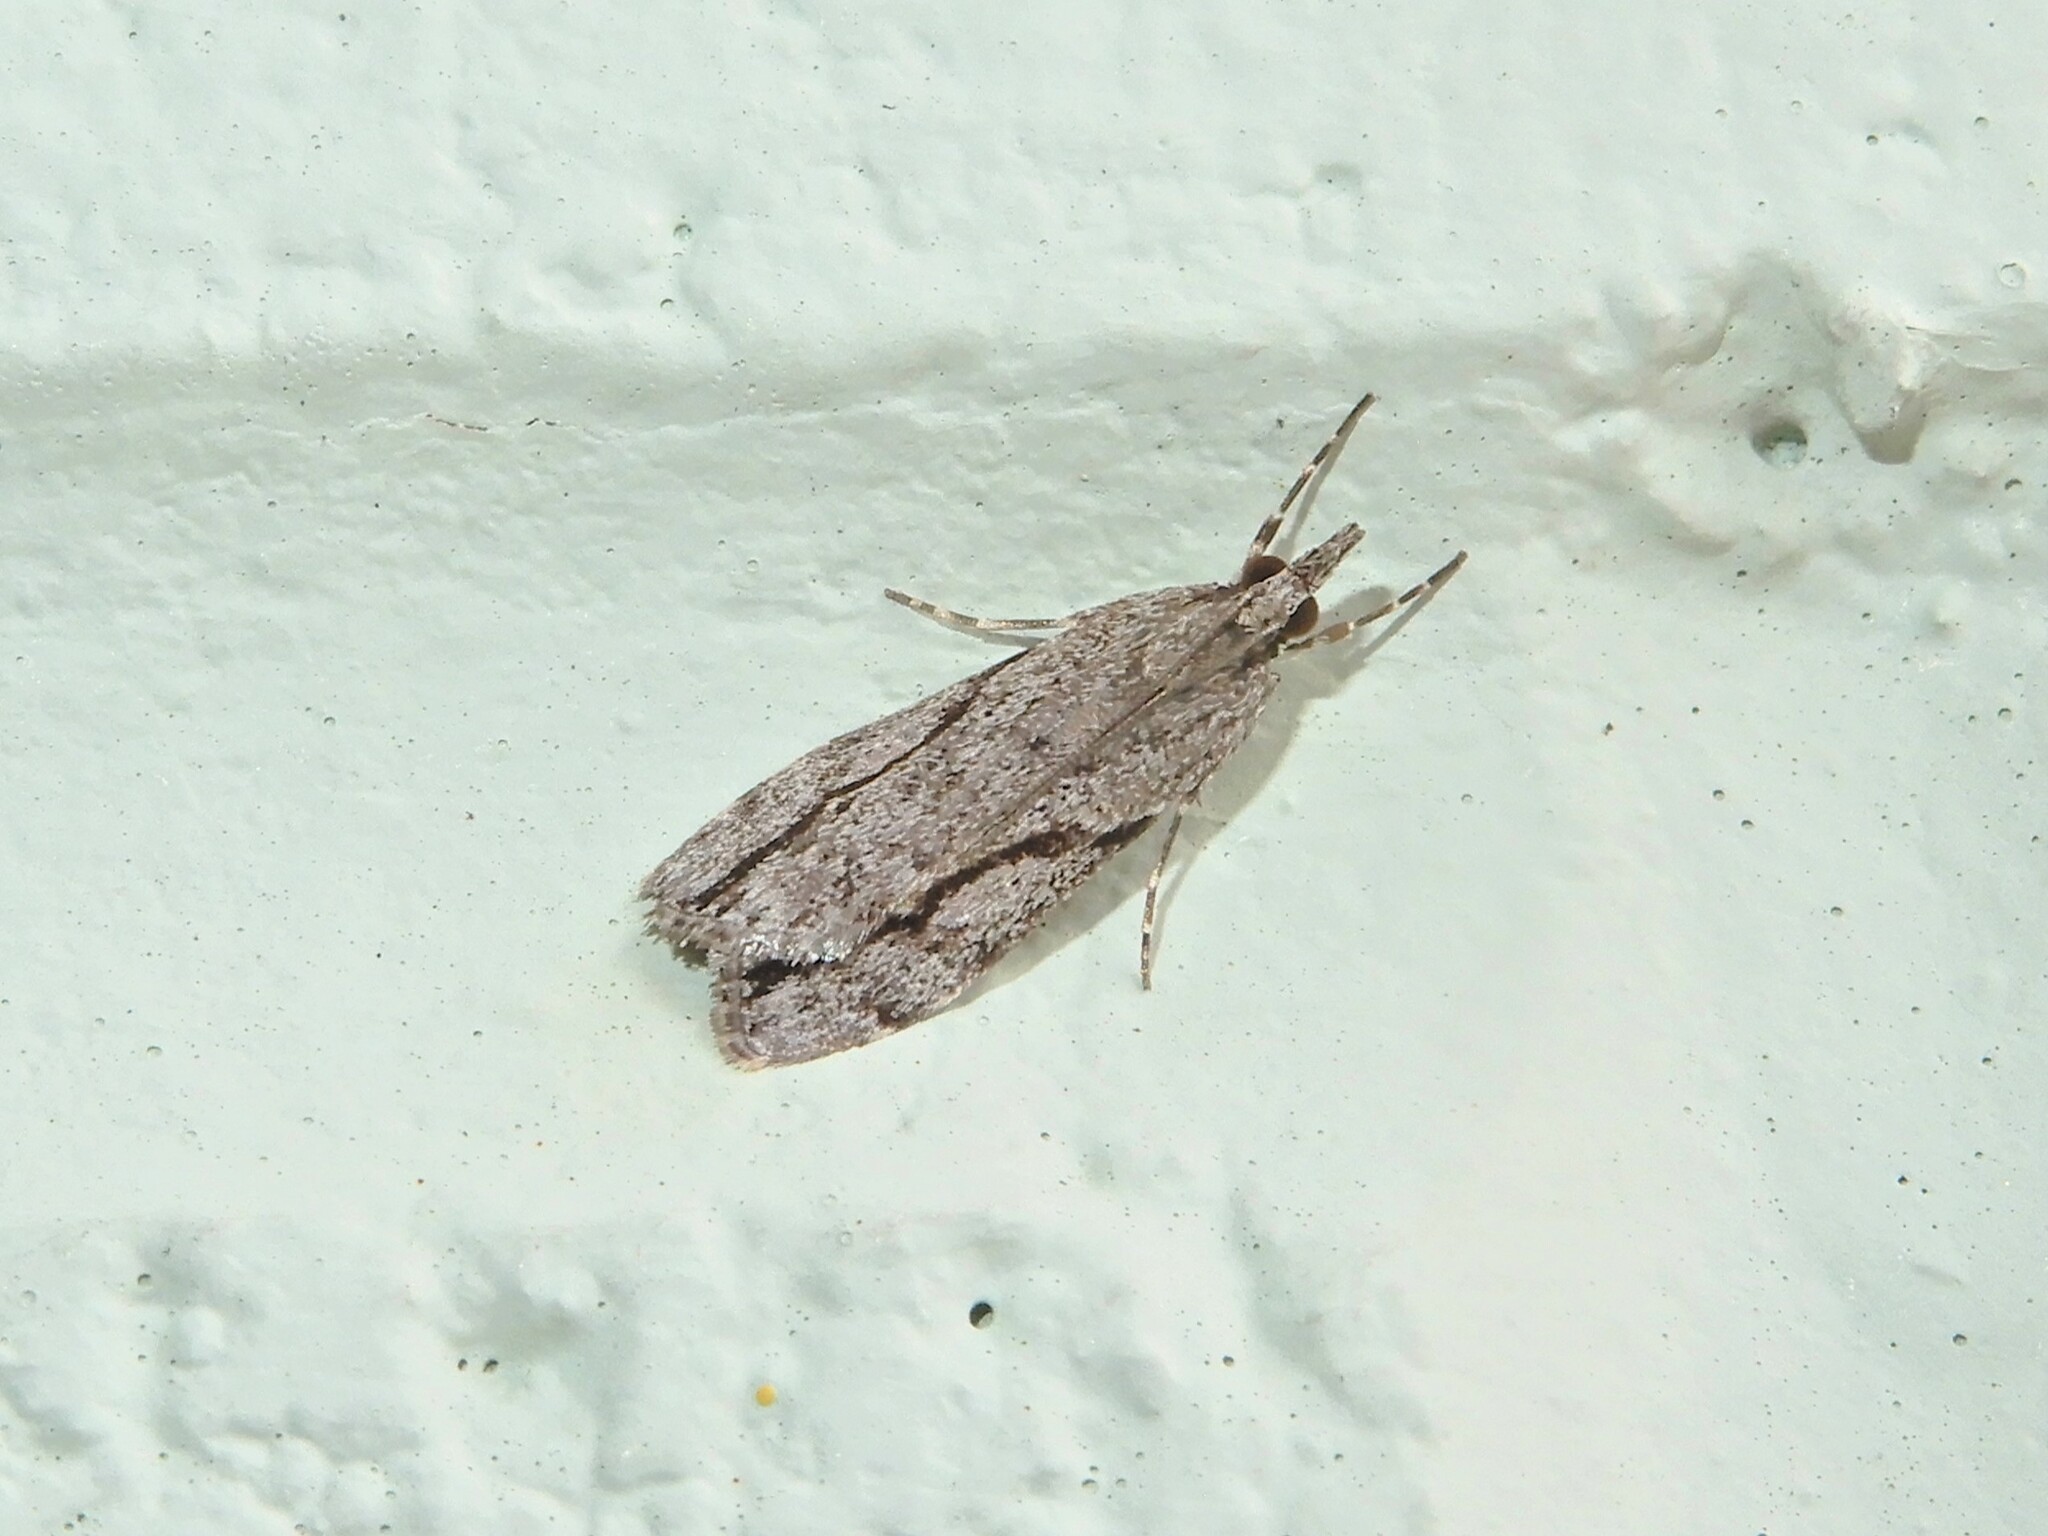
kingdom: Animalia
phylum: Arthropoda
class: Insecta
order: Lepidoptera
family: Crambidae
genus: Eudonia
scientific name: Eudonia bisinualis
